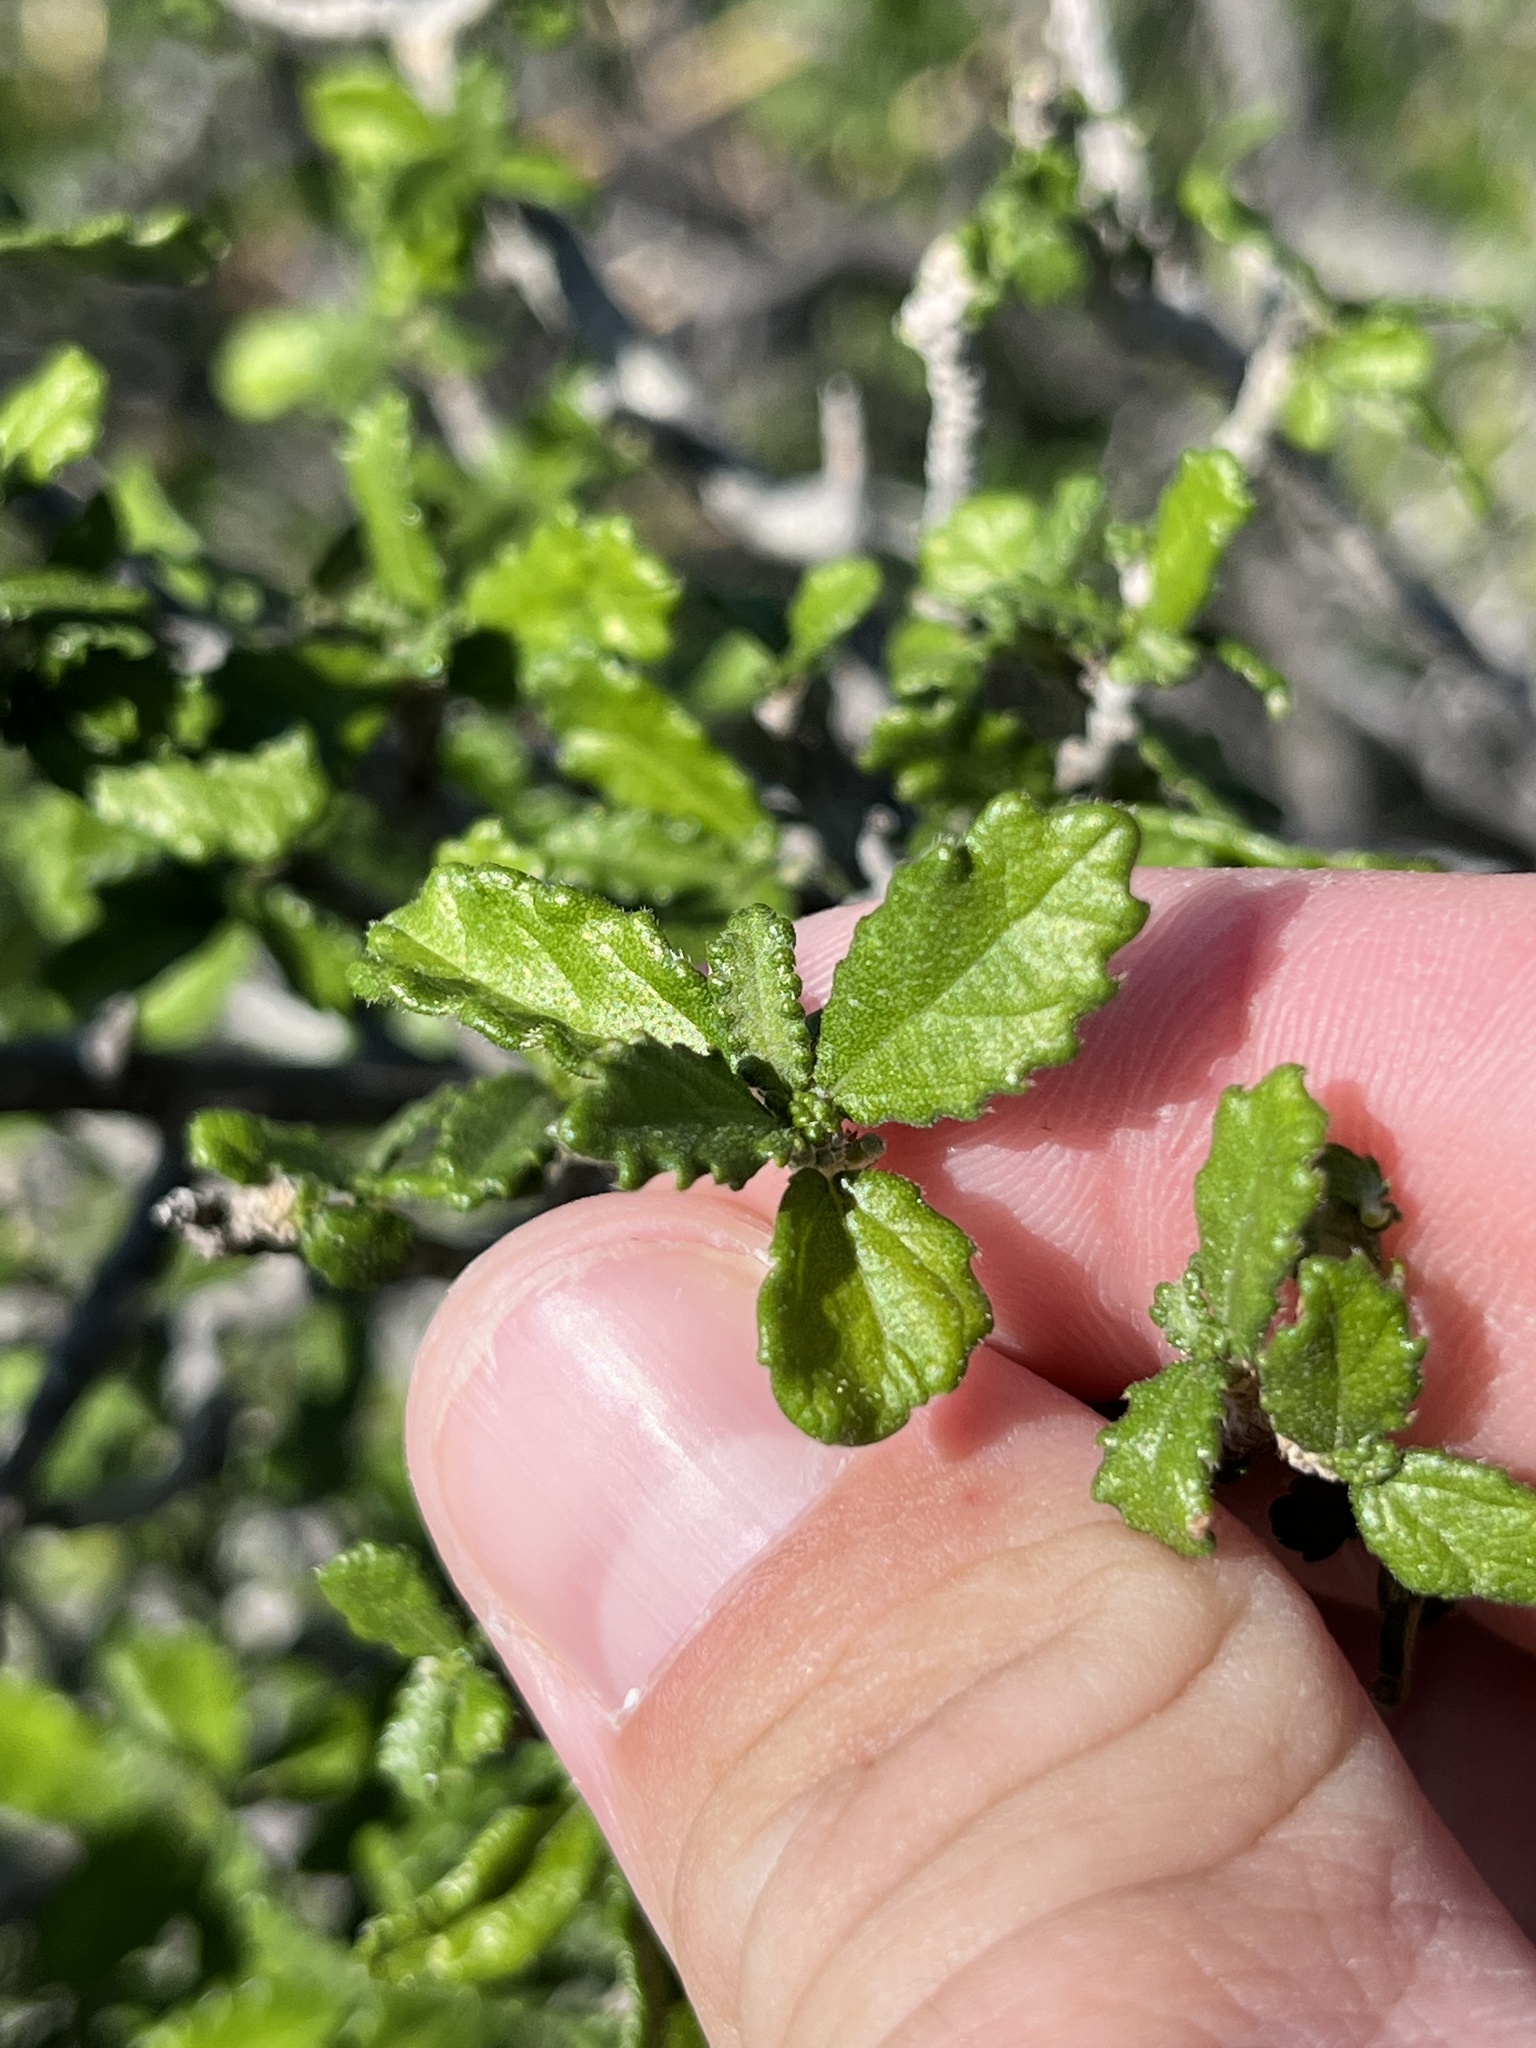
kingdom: Plantae
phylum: Tracheophyta
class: Magnoliopsida
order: Malpighiales
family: Euphorbiaceae
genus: Bernardia
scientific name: Bernardia myricifolia
